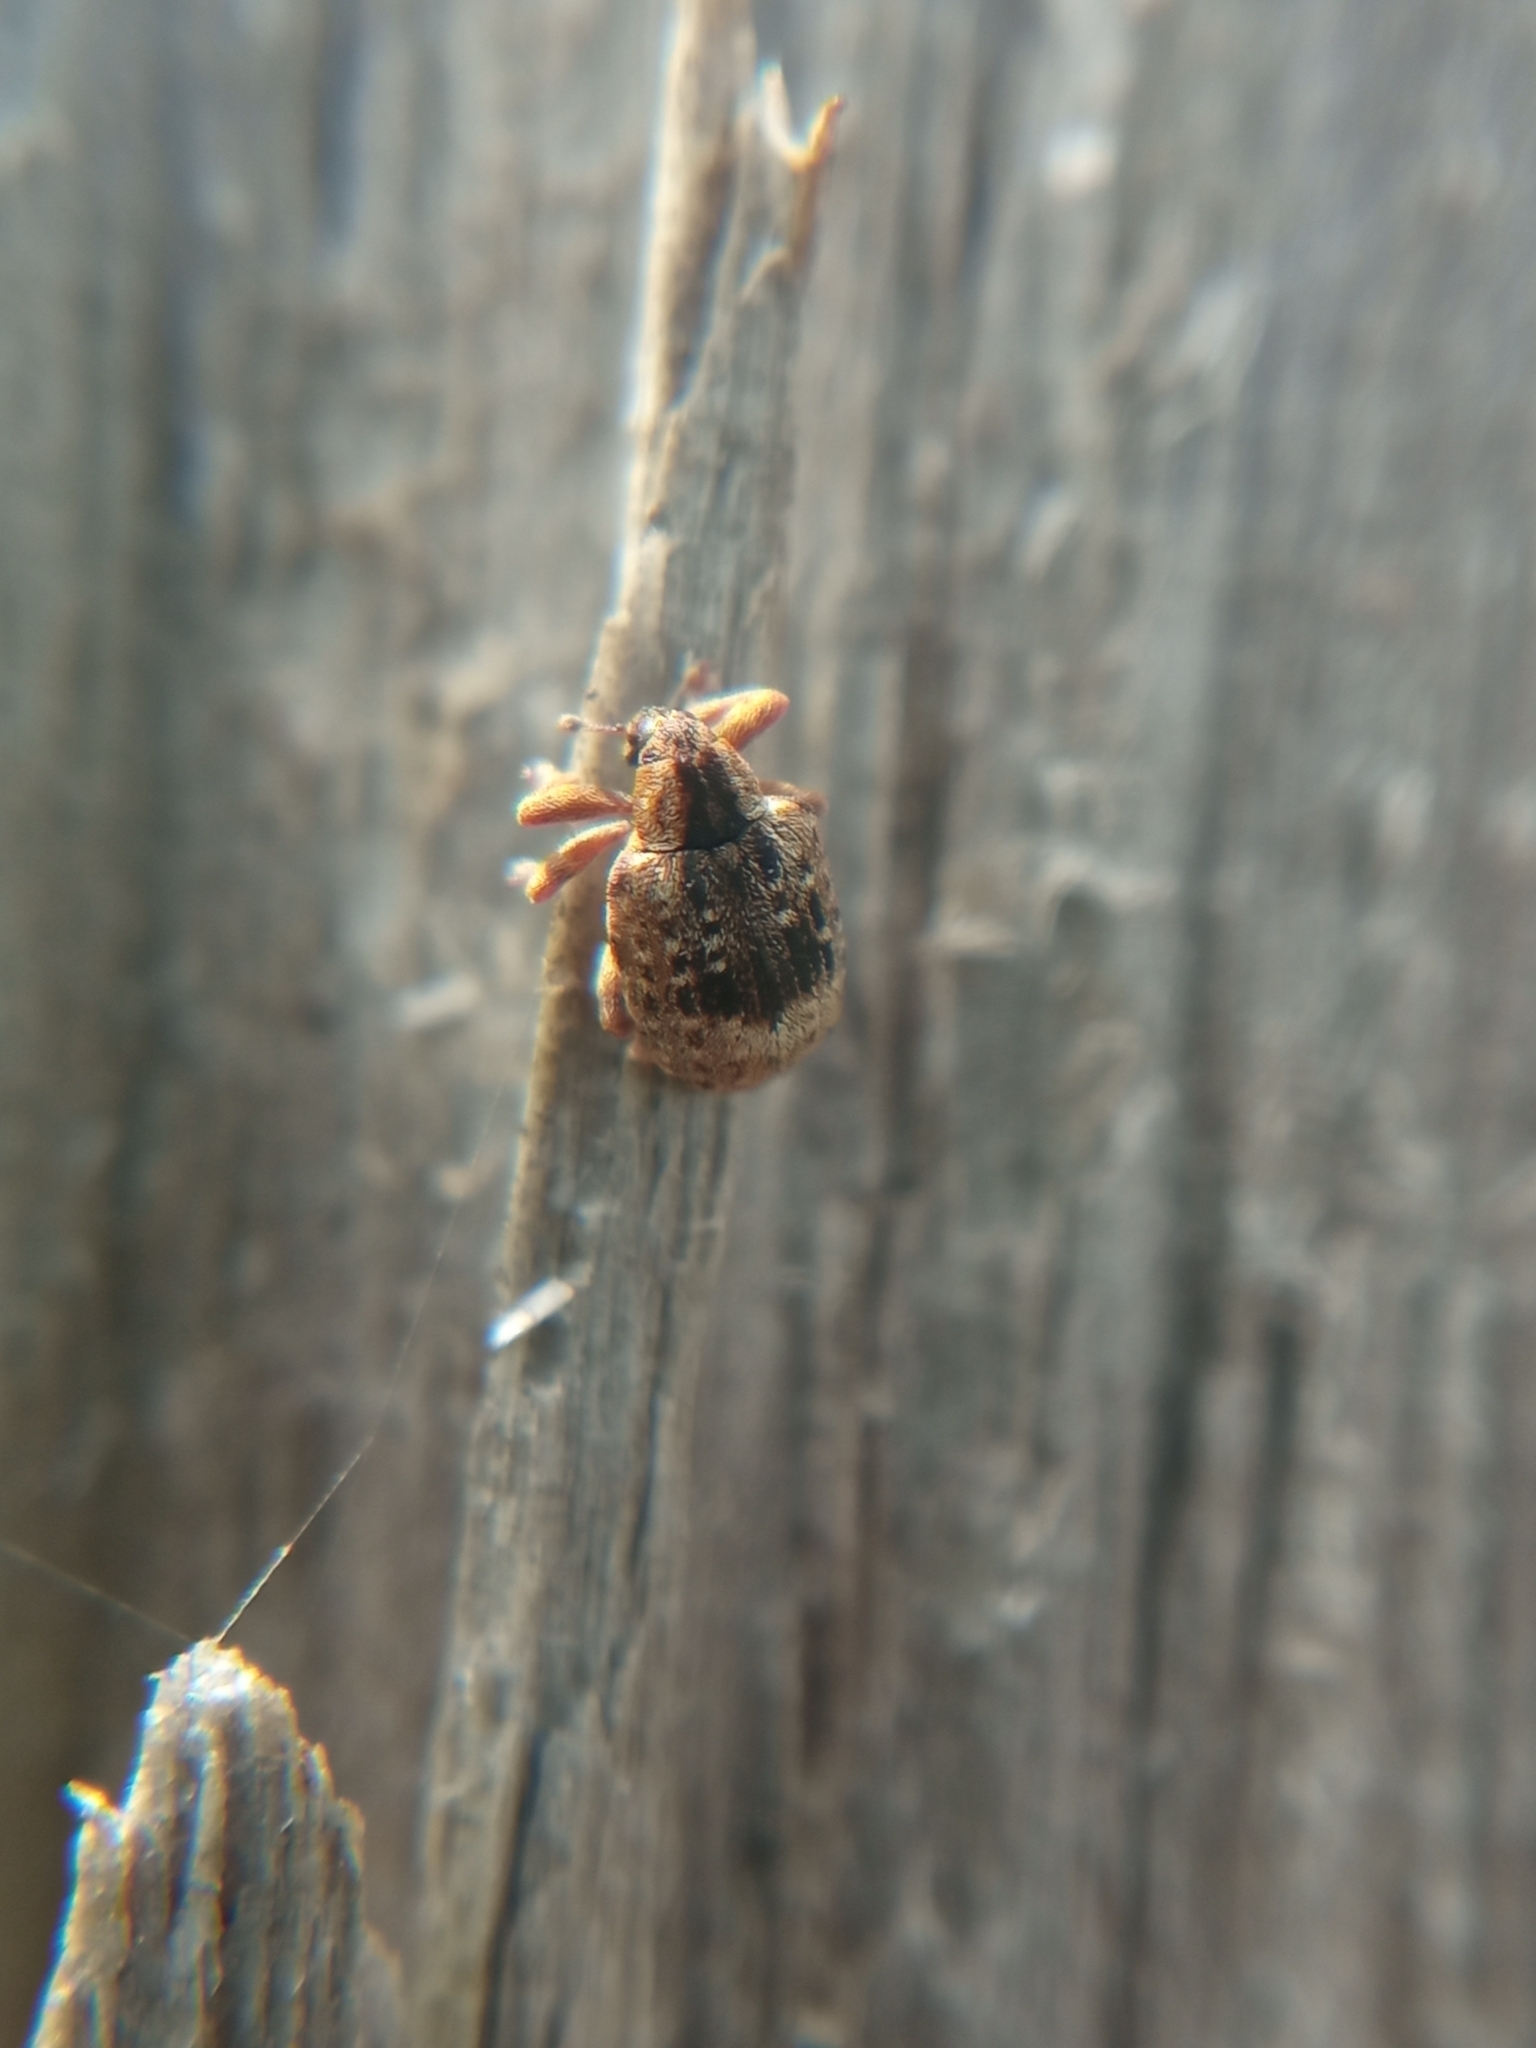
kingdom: Animalia
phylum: Arthropoda
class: Insecta
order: Coleoptera
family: Curculionidae
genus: Stereonychus
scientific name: Stereonychus fraxini
